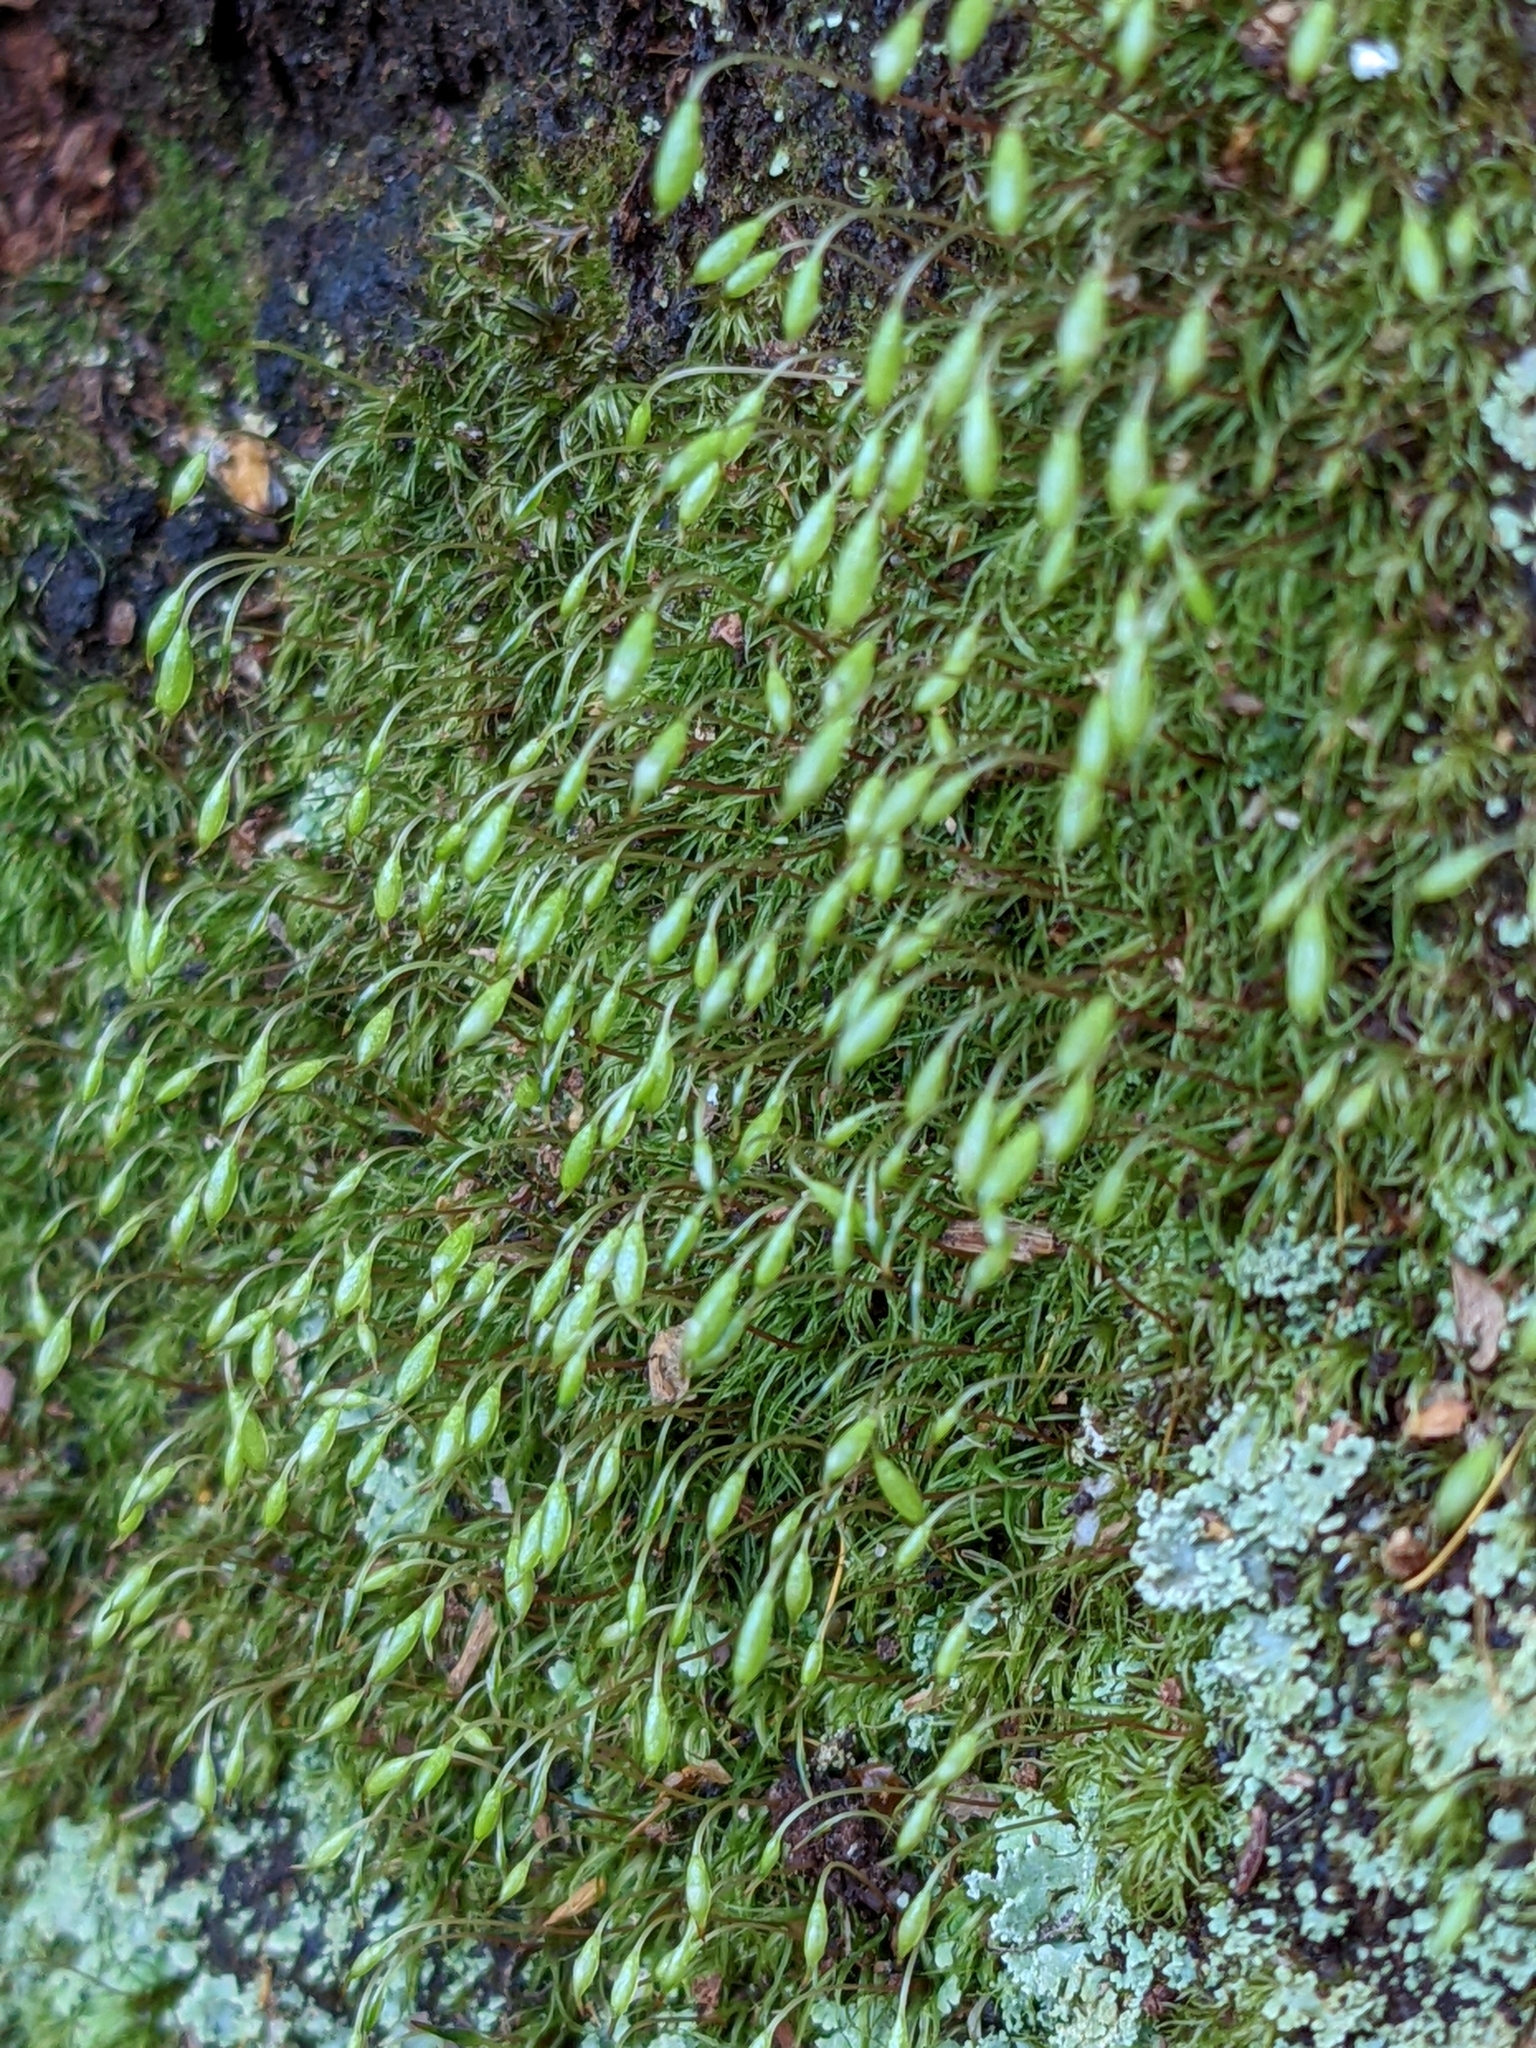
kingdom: Plantae
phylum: Bryophyta
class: Bryopsida
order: Orthodontiales
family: Orthodontiaceae
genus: Orthodontium
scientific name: Orthodontium lineare
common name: Cape thread-moss
